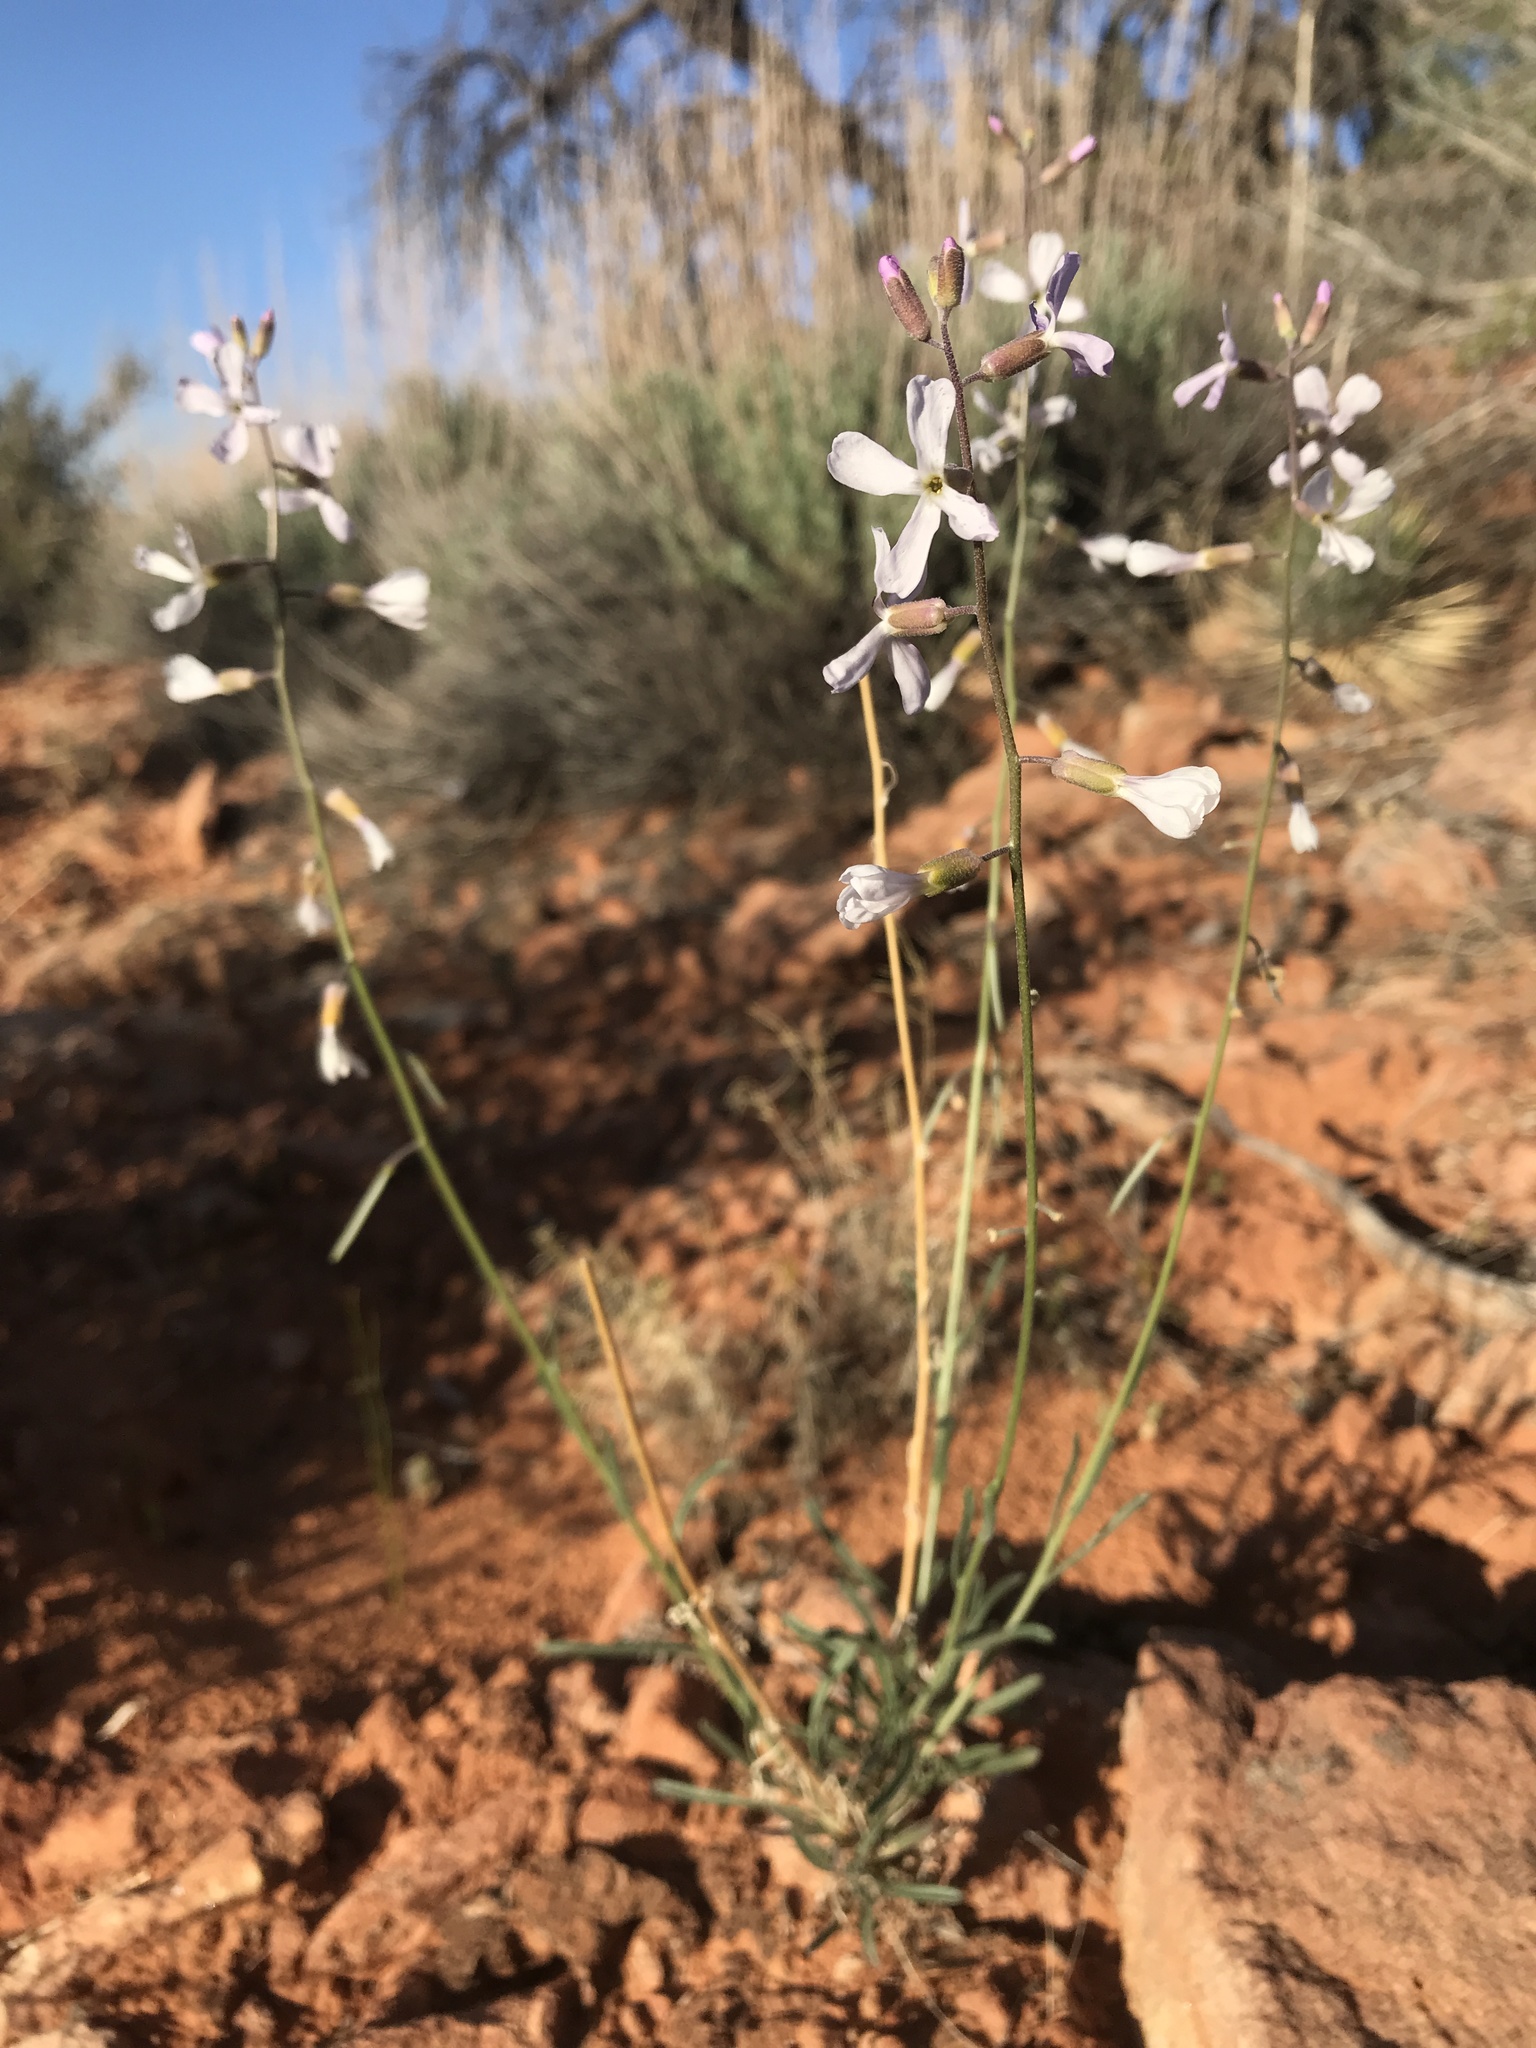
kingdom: Plantae
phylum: Tracheophyta
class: Magnoliopsida
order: Brassicales
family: Brassicaceae
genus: Boechera
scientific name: Boechera formosa
